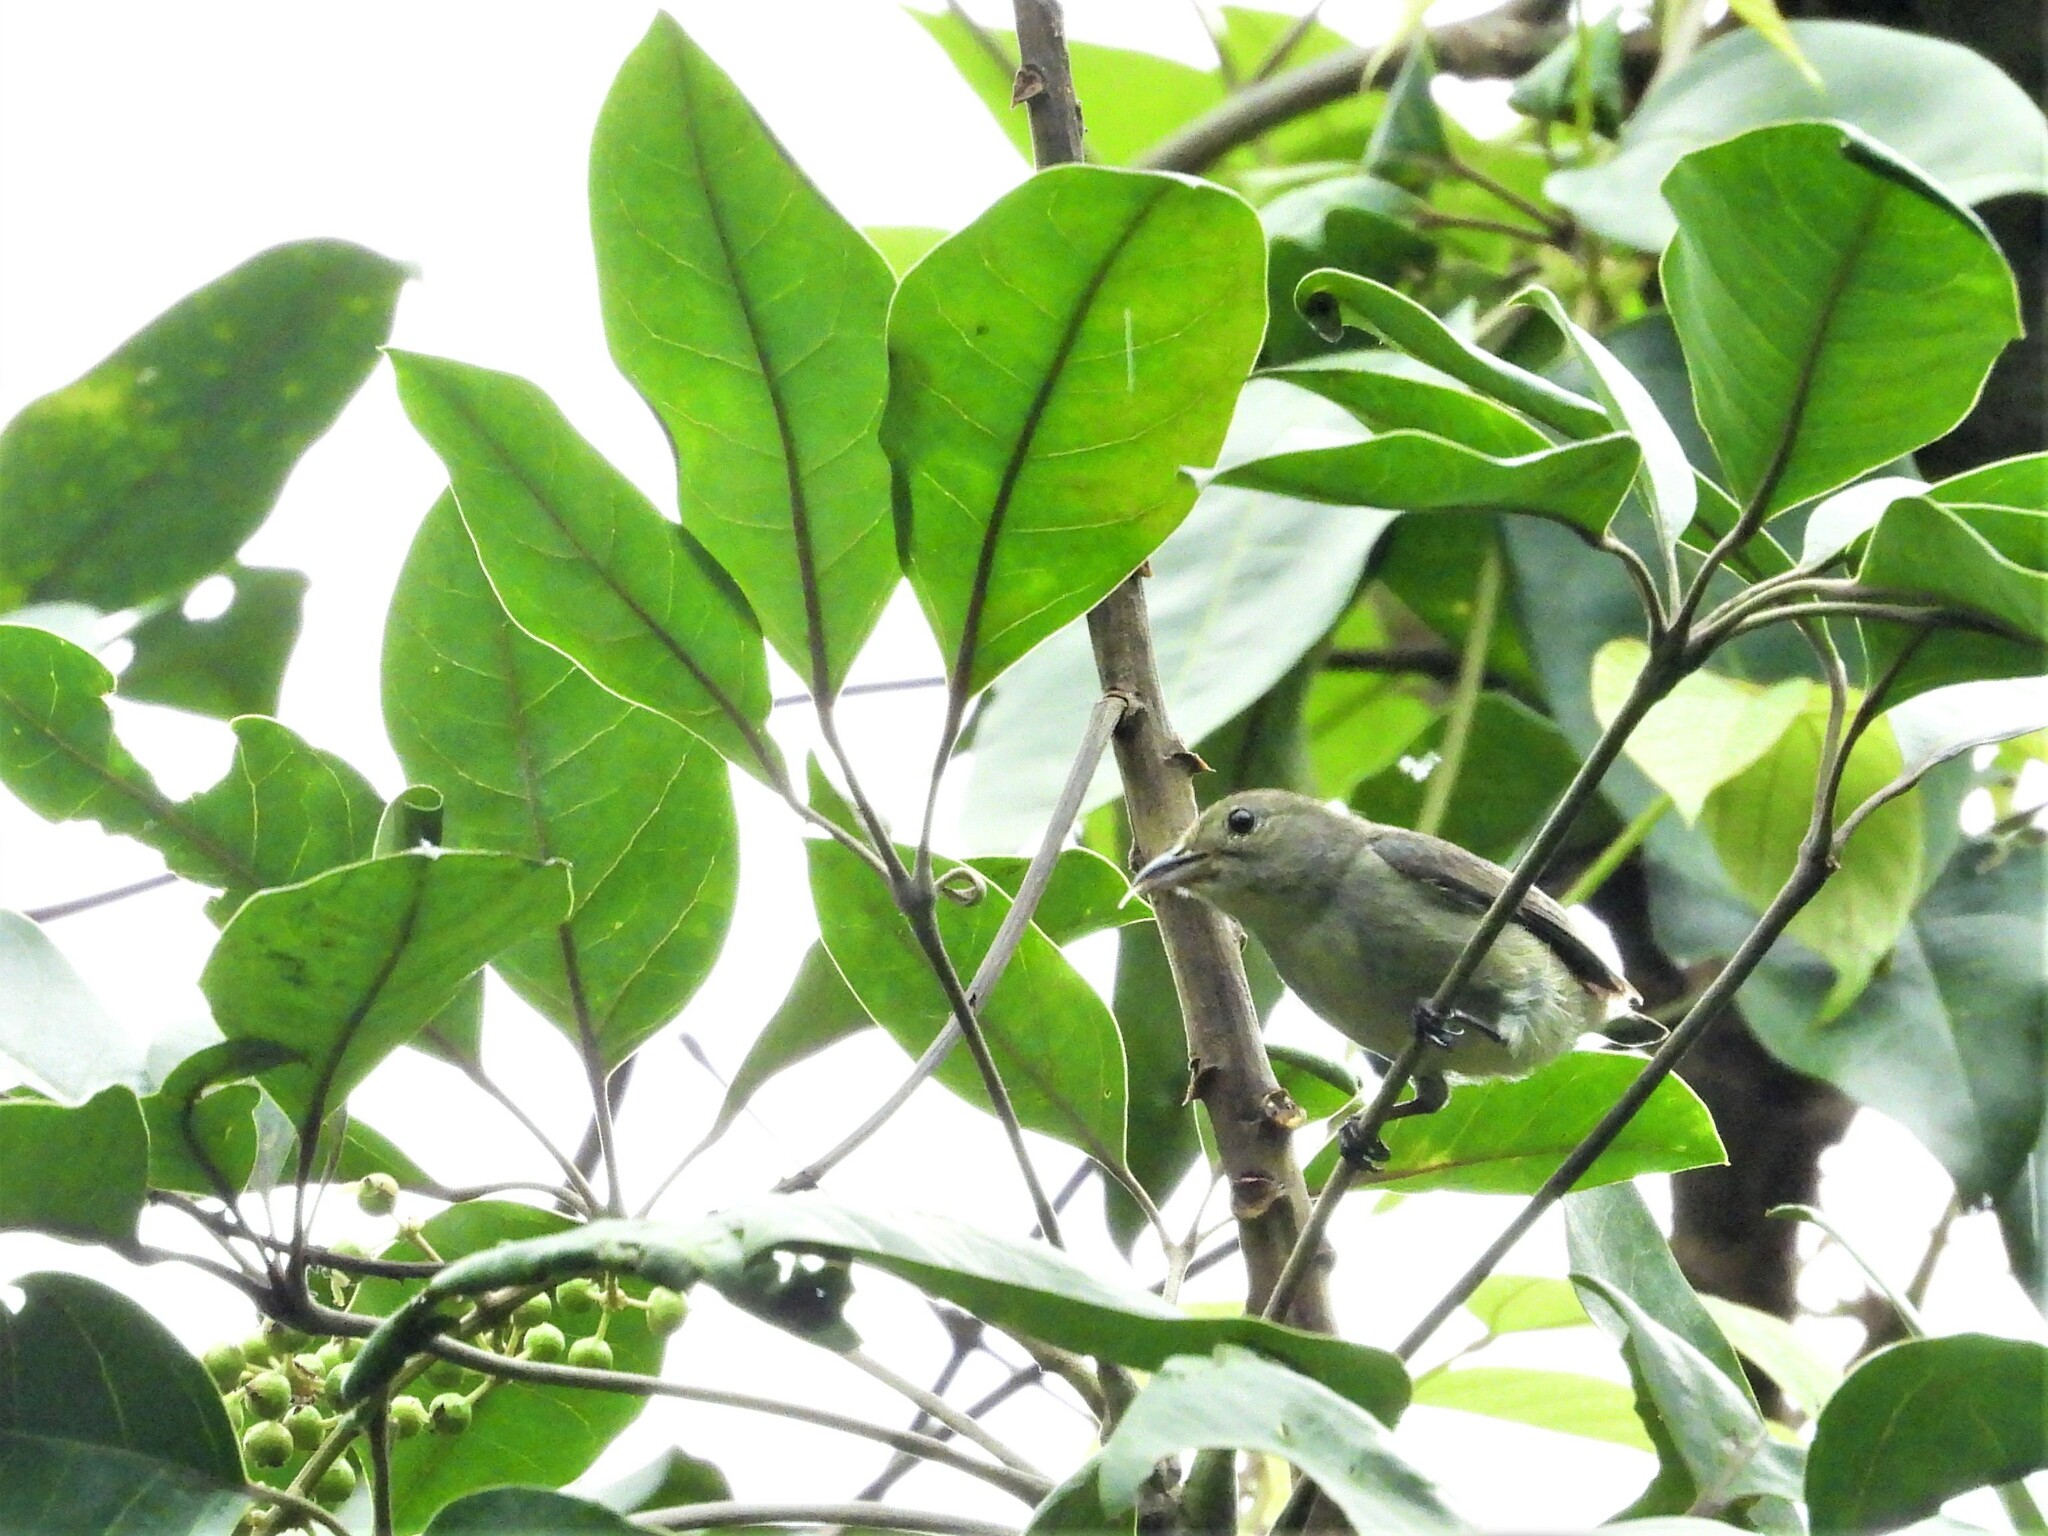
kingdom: Animalia
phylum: Chordata
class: Aves
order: Passeriformes
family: Dicaeidae
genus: Dicaeum
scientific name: Dicaeum cruentatum
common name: Scarlet-backed flowerpecker
